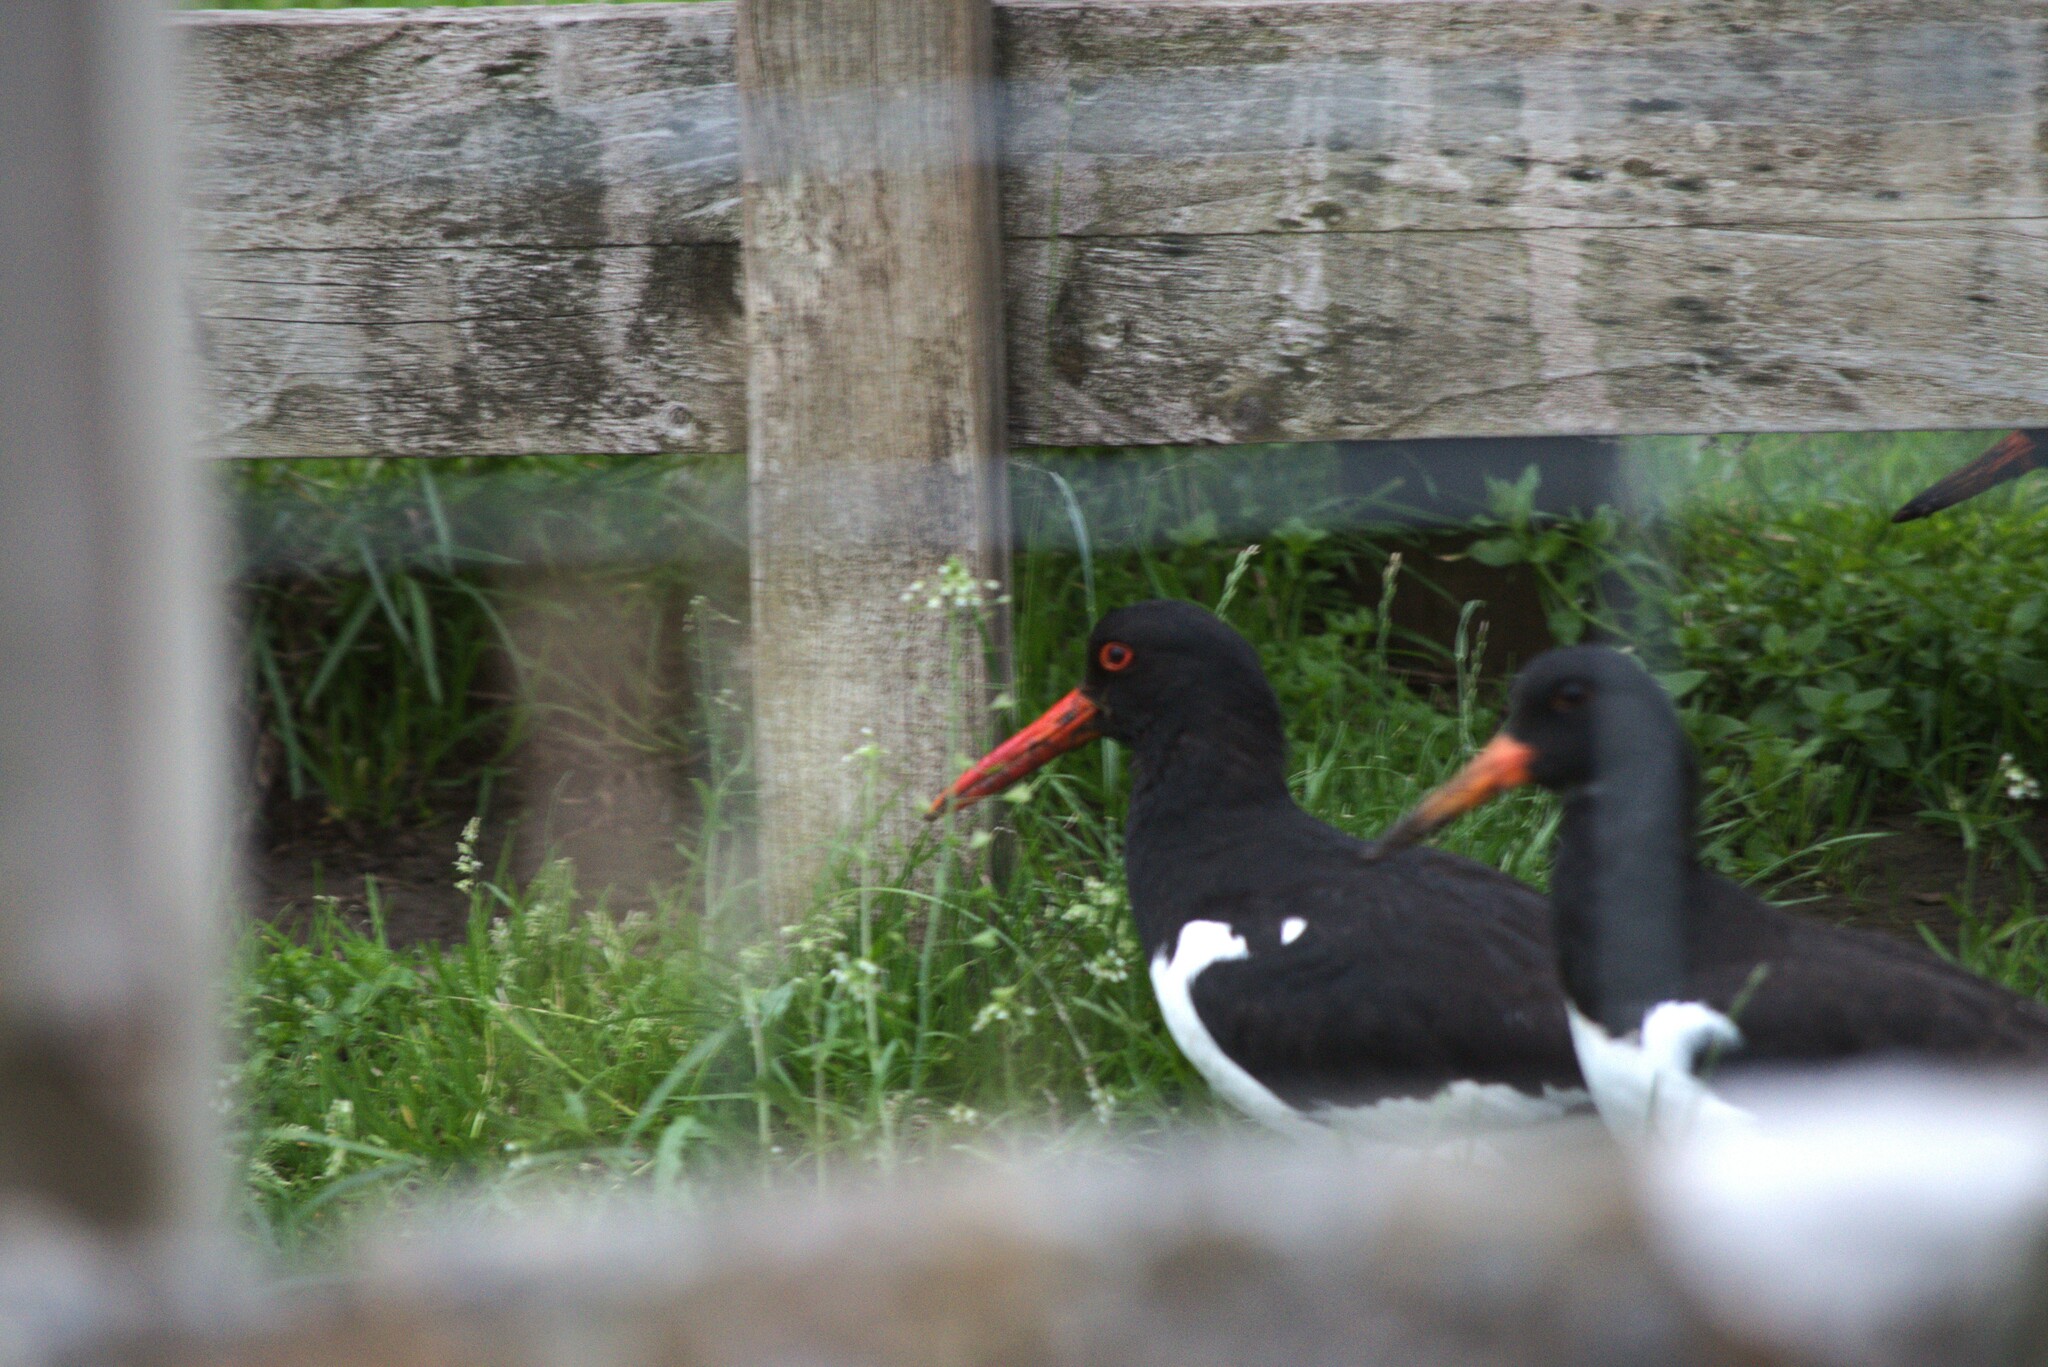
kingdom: Animalia
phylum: Chordata
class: Aves
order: Charadriiformes
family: Haematopodidae
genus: Haematopus
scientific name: Haematopus ostralegus
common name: Eurasian oystercatcher
